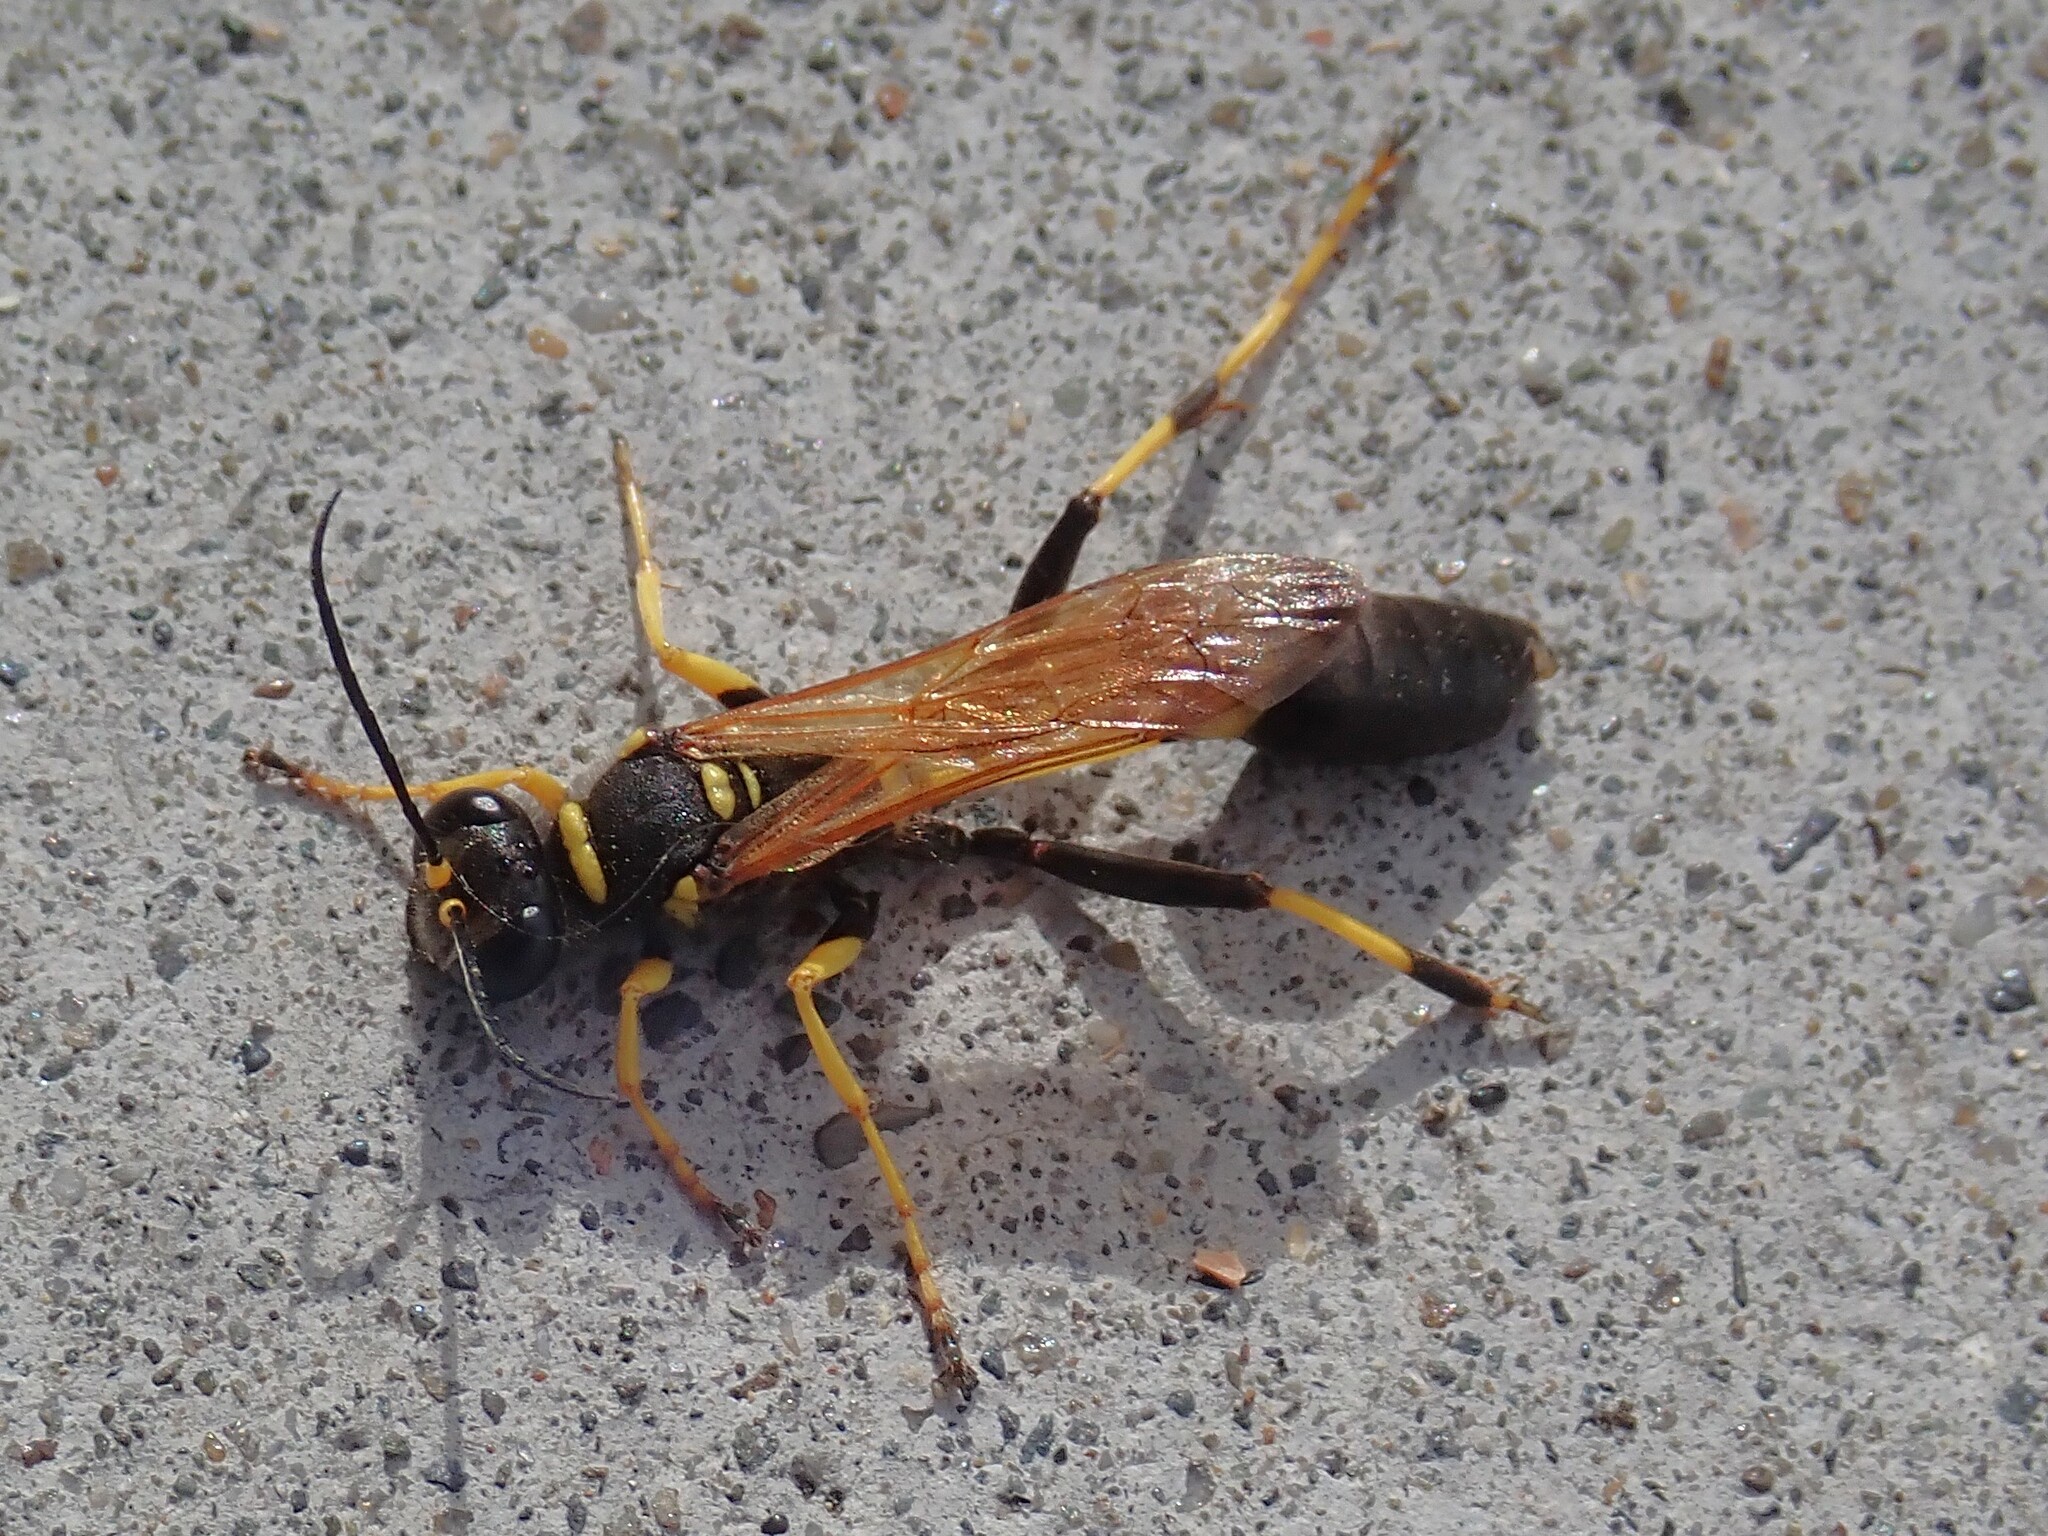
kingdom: Animalia
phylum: Arthropoda
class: Insecta
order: Hymenoptera
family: Sphecidae
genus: Sceliphron
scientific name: Sceliphron caementarium
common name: Mud dauber
